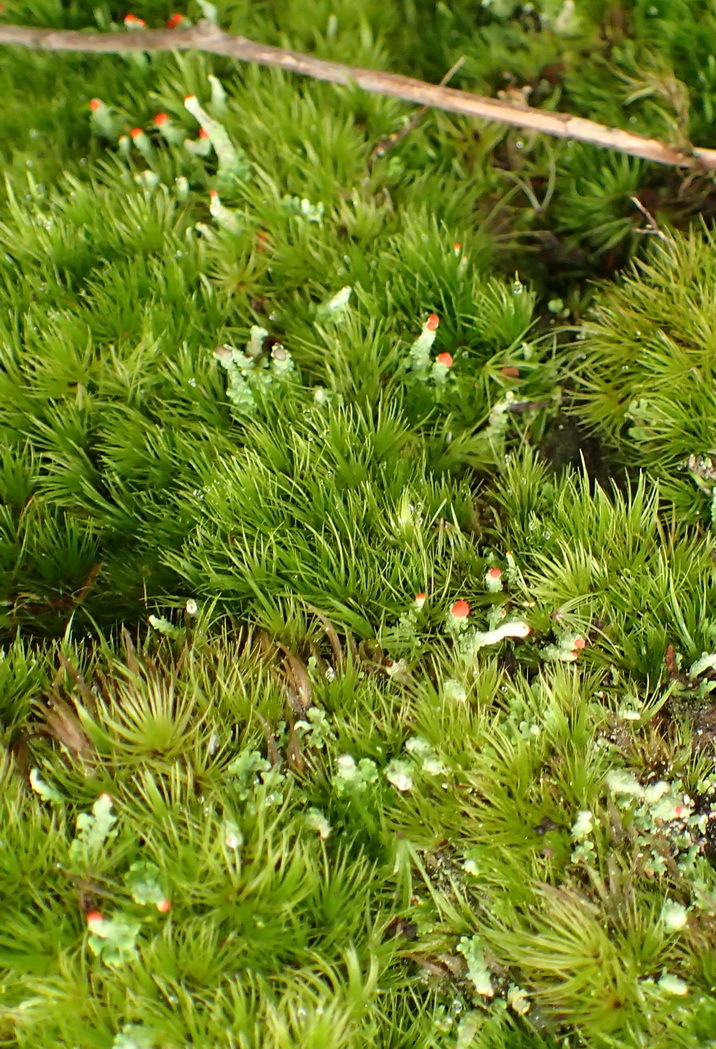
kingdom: Fungi
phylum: Ascomycota
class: Lecanoromycetes
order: Lecanorales
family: Cladoniaceae
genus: Cladonia
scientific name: Cladonia didyma
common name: Southern soldiers
